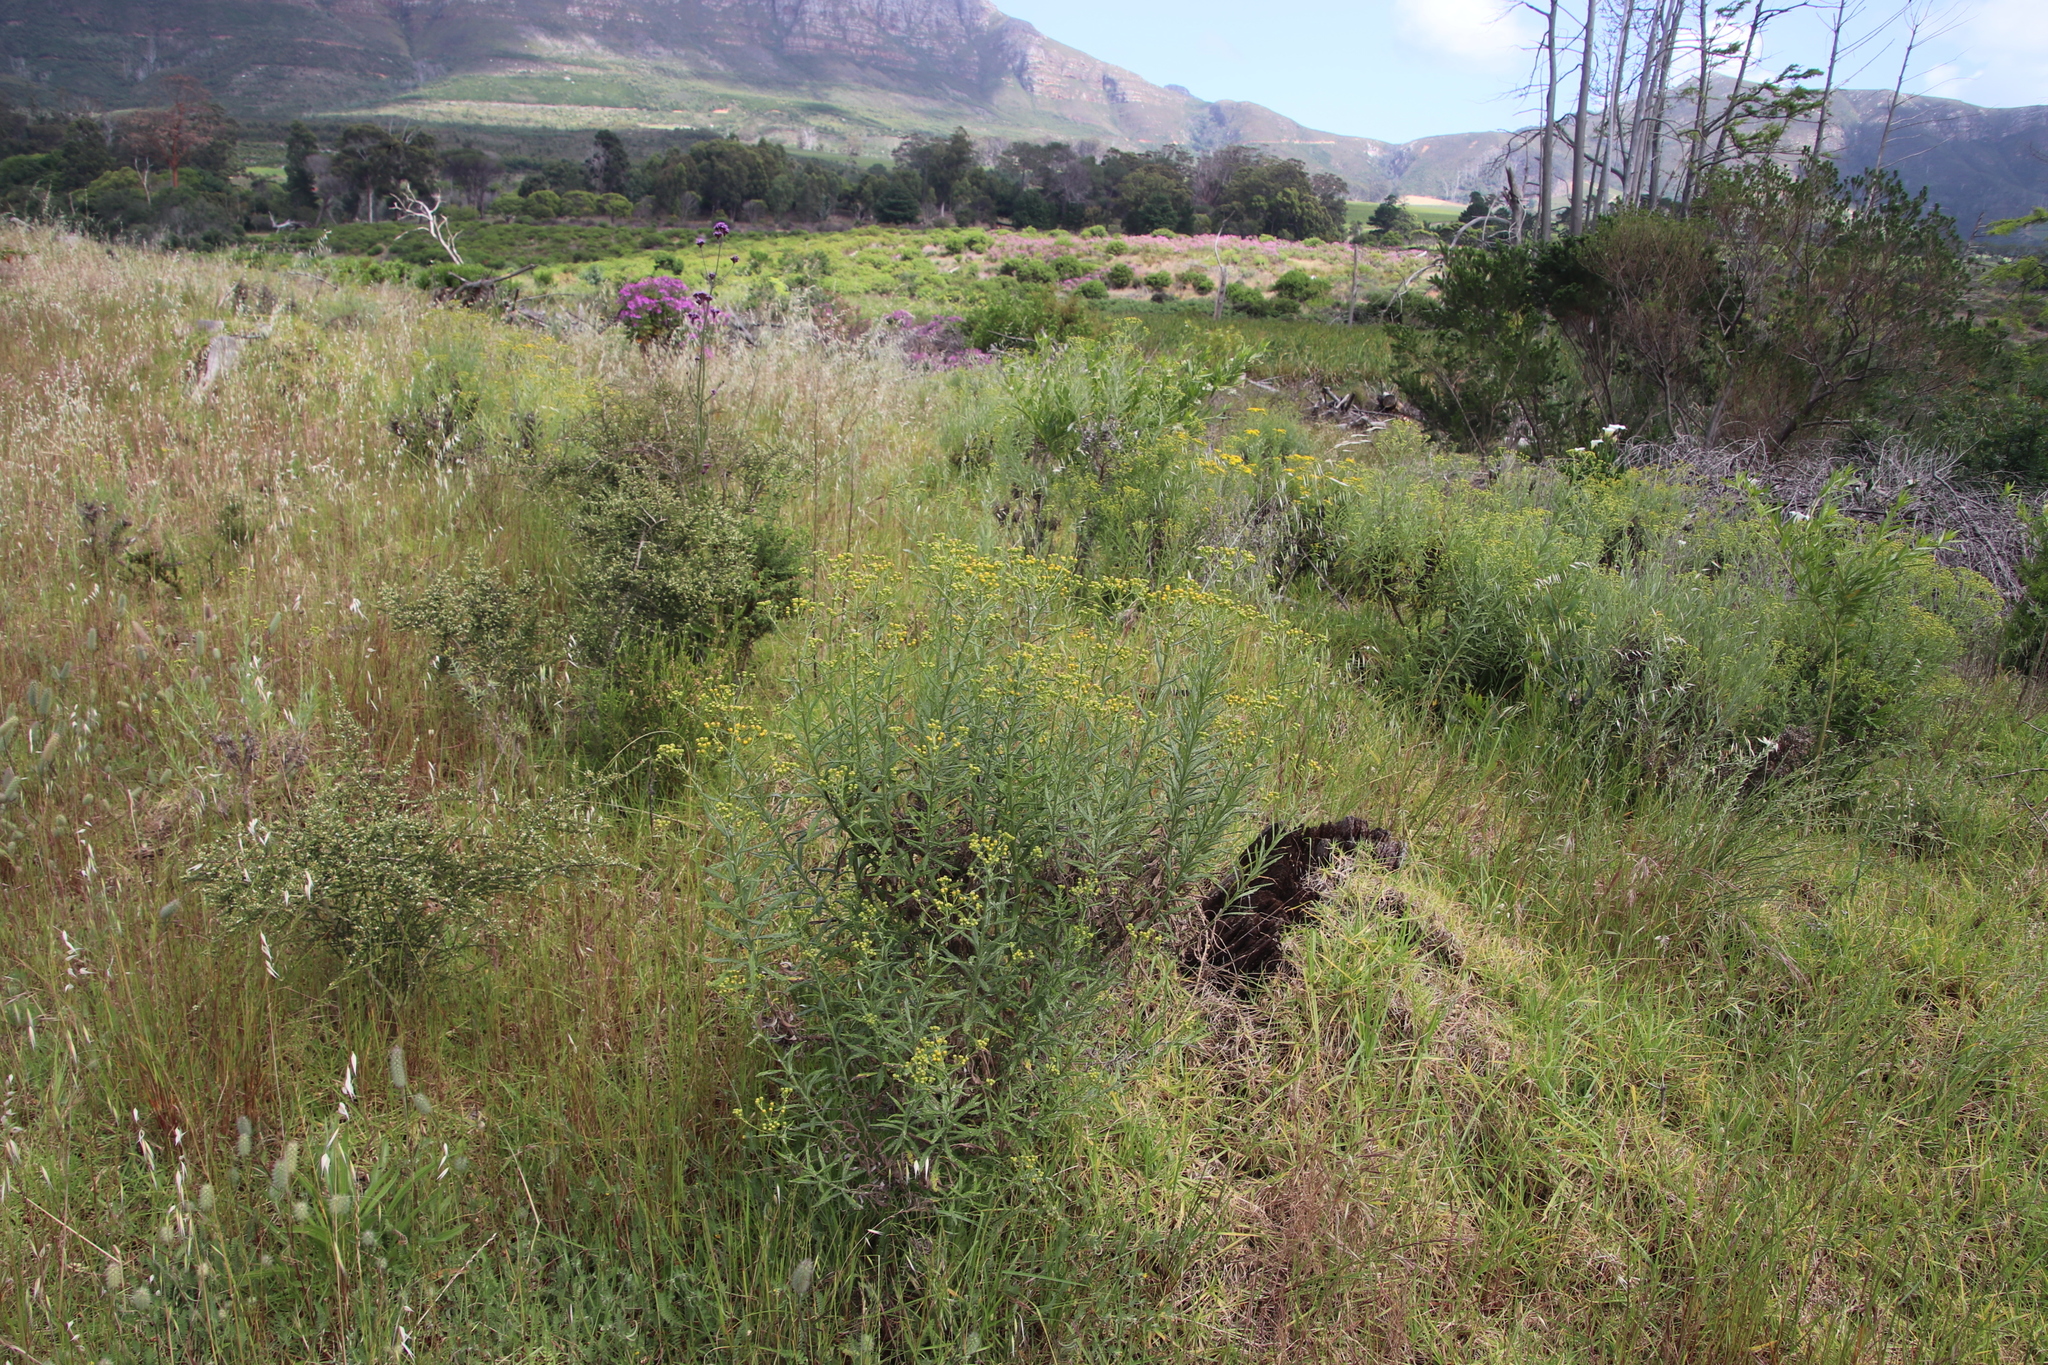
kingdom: Plantae
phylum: Tracheophyta
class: Magnoliopsida
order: Asterales
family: Asteraceae
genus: Senecio
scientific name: Senecio pterophorus
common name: Shoddy ragwort
